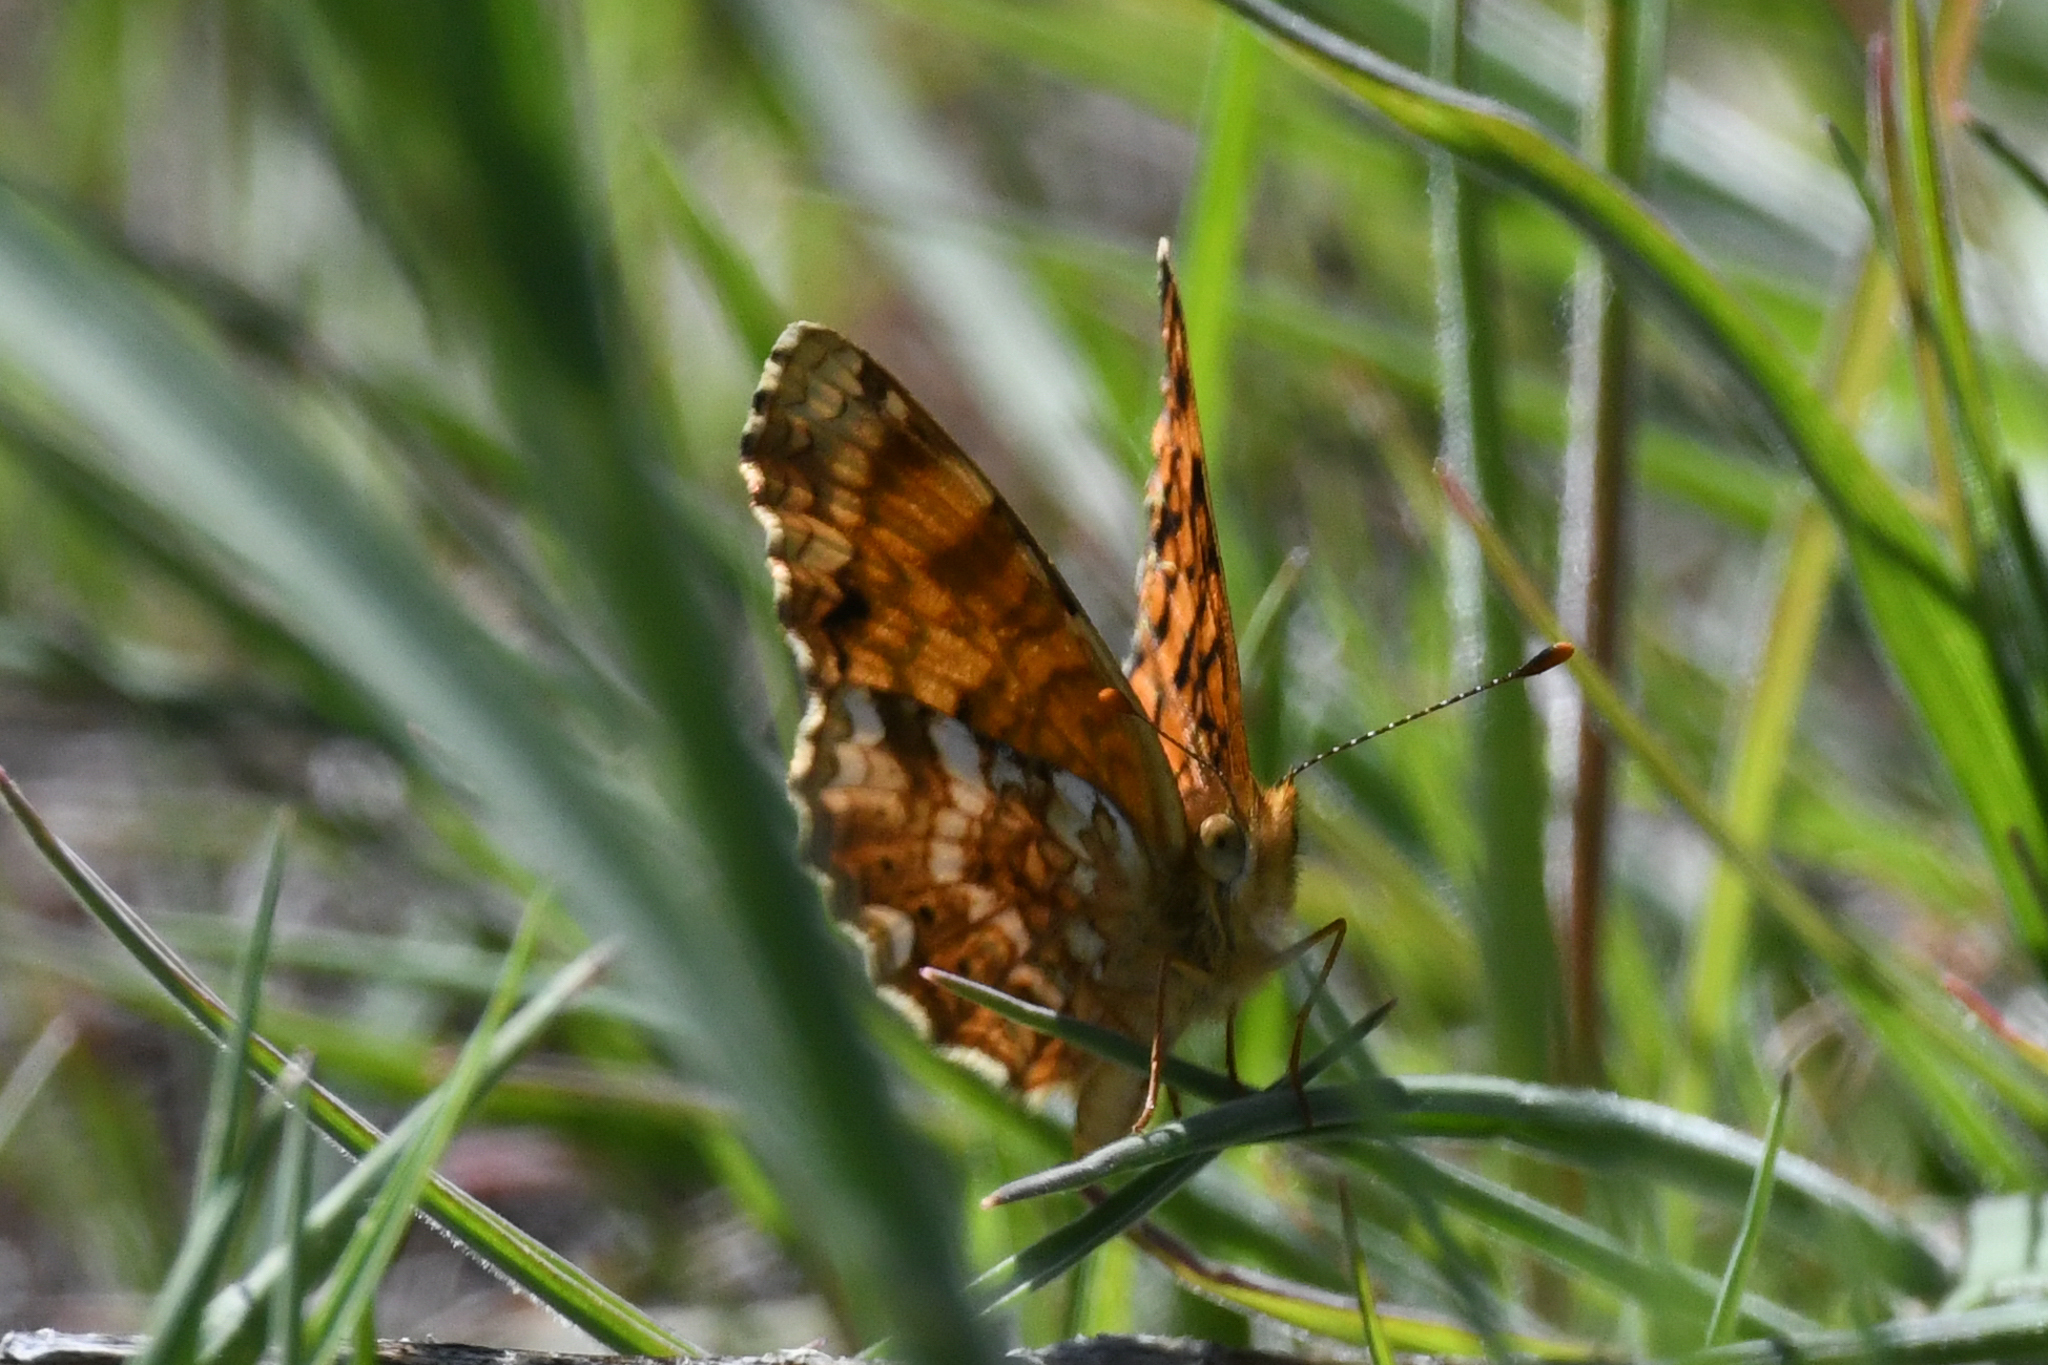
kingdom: Animalia
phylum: Arthropoda
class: Insecta
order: Lepidoptera
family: Nymphalidae
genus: Eresia
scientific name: Eresia aveyrona
